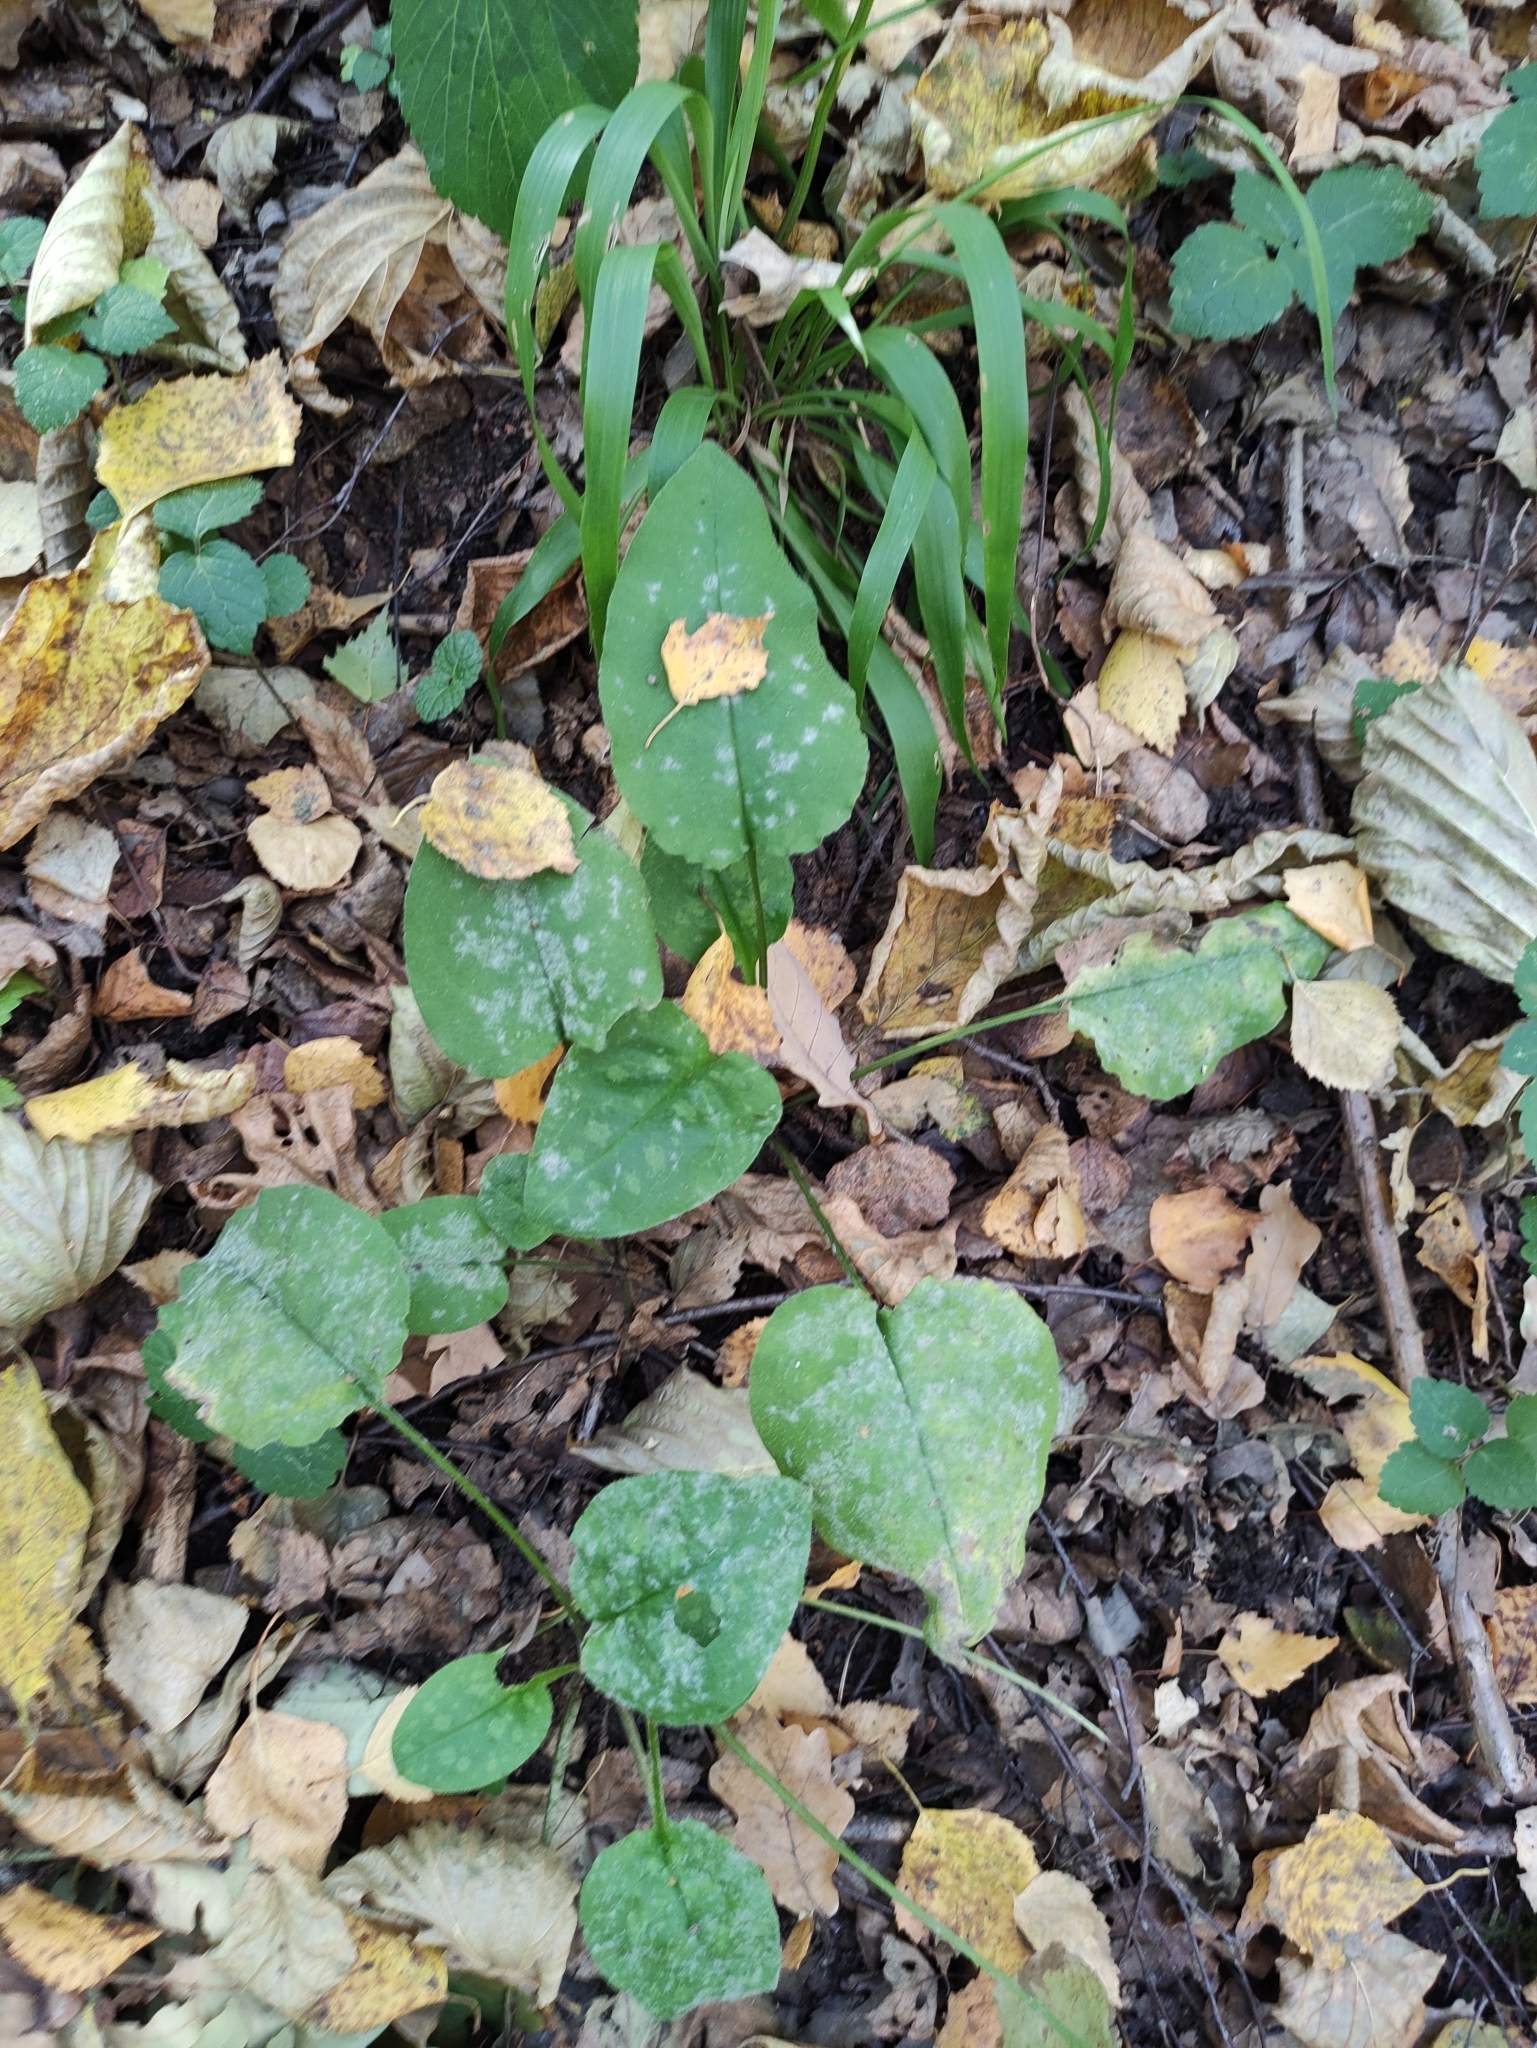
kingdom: Plantae
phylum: Tracheophyta
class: Magnoliopsida
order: Boraginales
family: Boraginaceae
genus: Pulmonaria
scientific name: Pulmonaria obscura
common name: Suffolk lungwort
